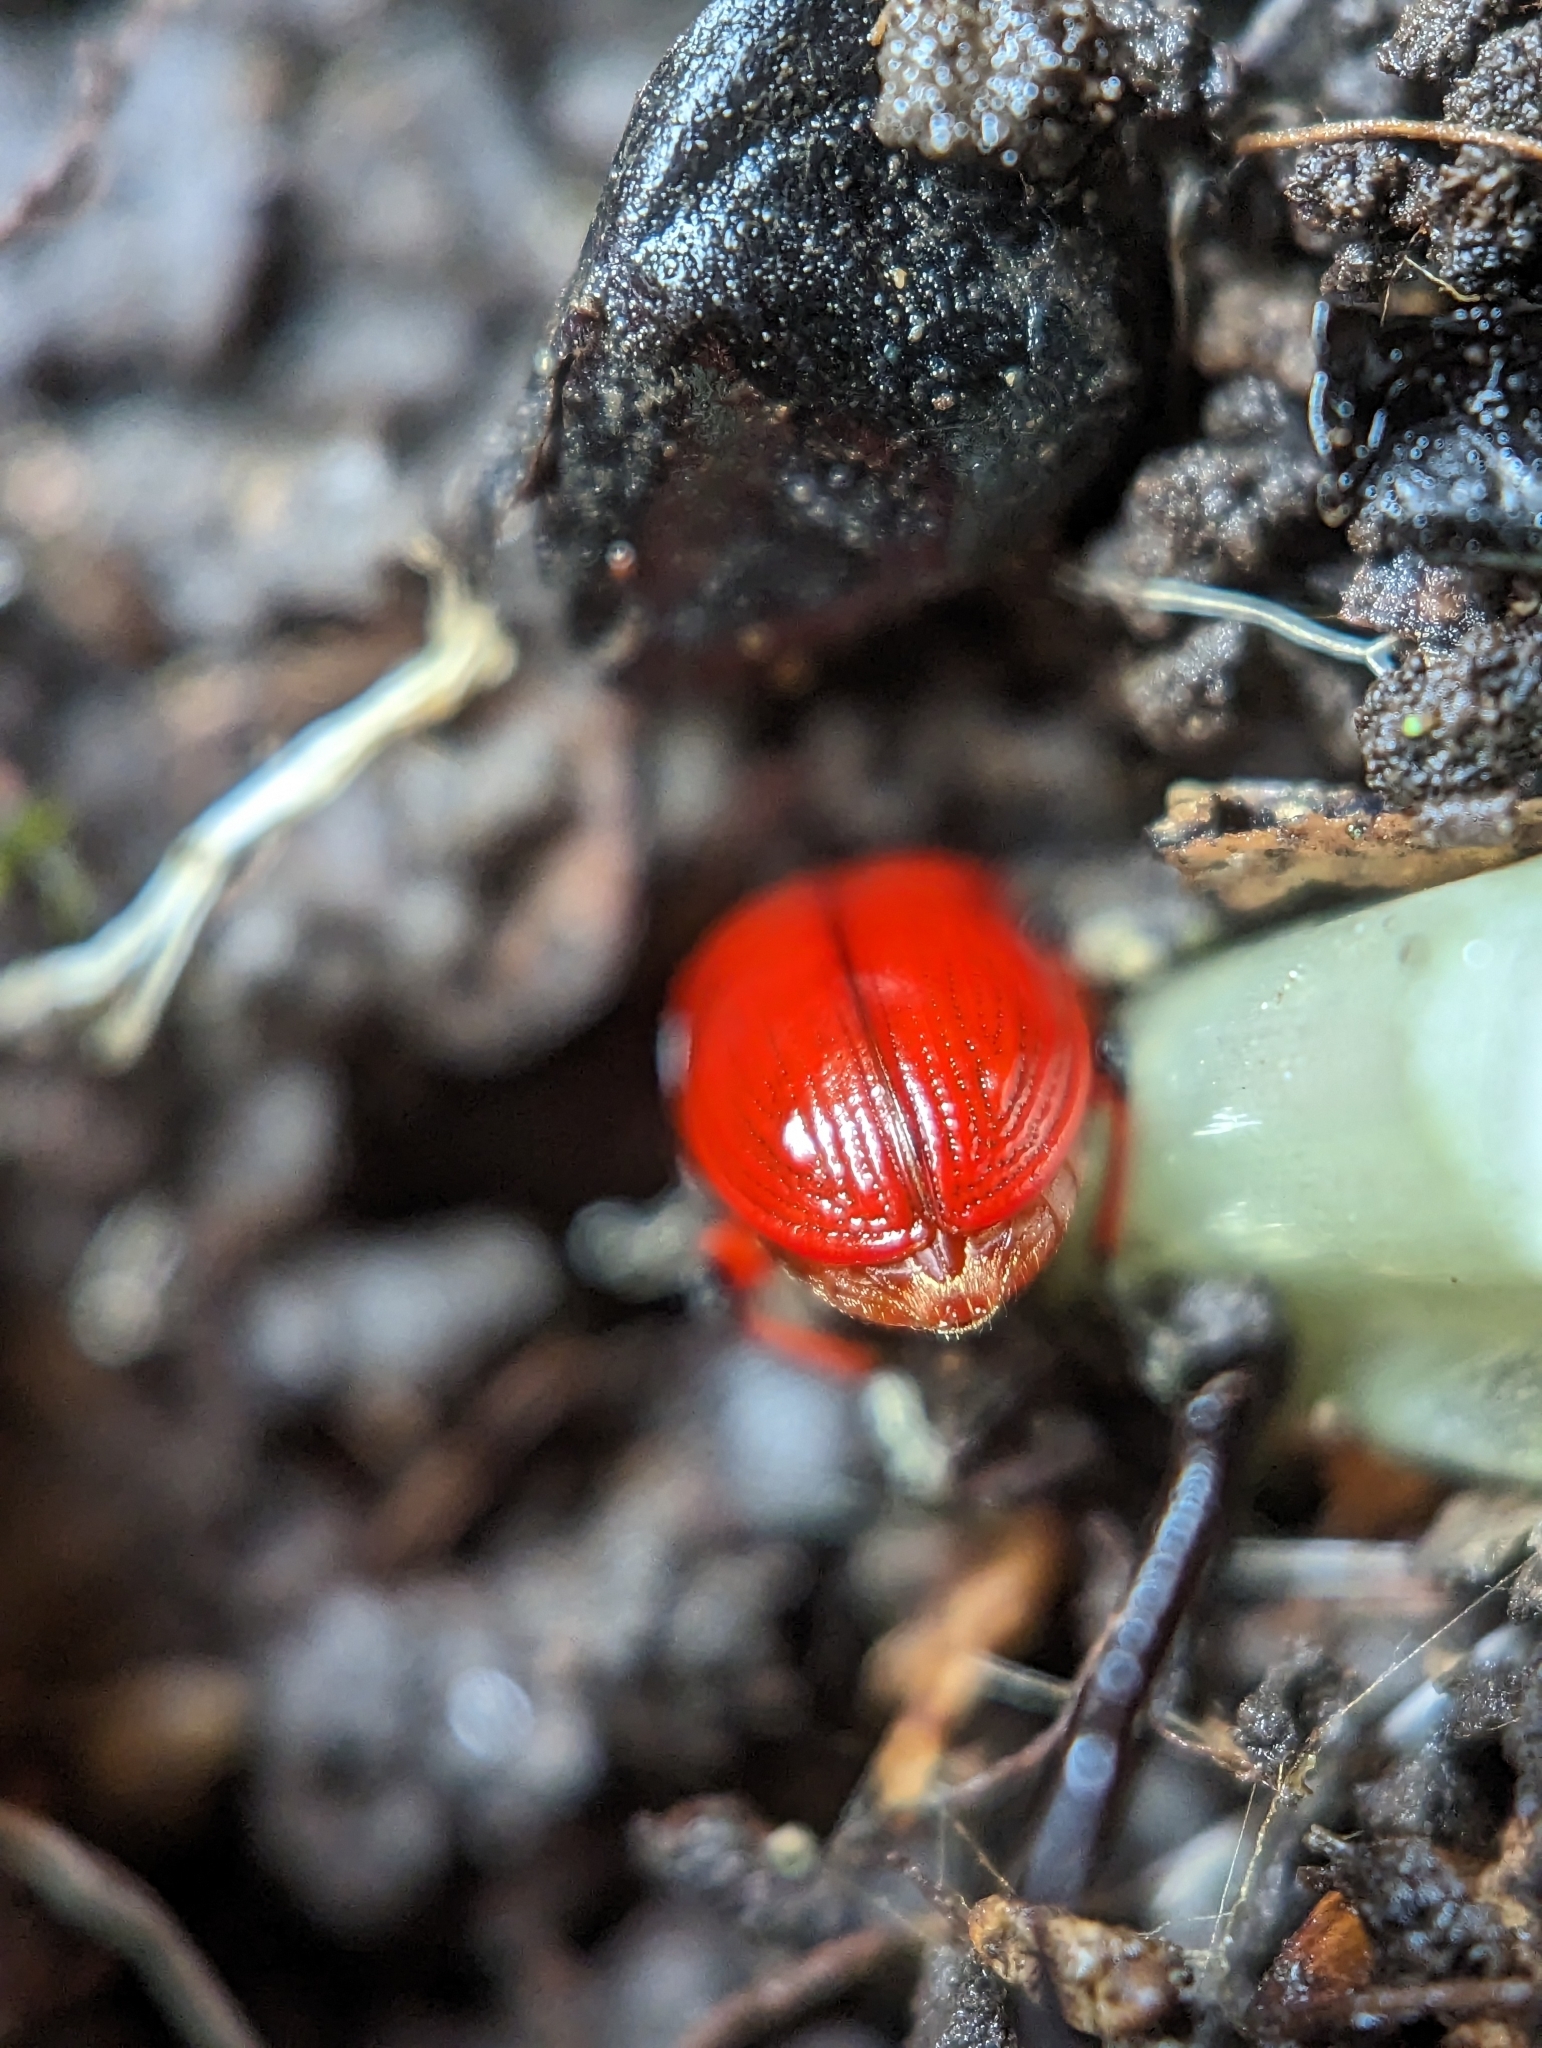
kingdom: Animalia
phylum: Arthropoda
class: Insecta
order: Coleoptera
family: Chrysomelidae
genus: Lilioceris
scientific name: Lilioceris merdigera
